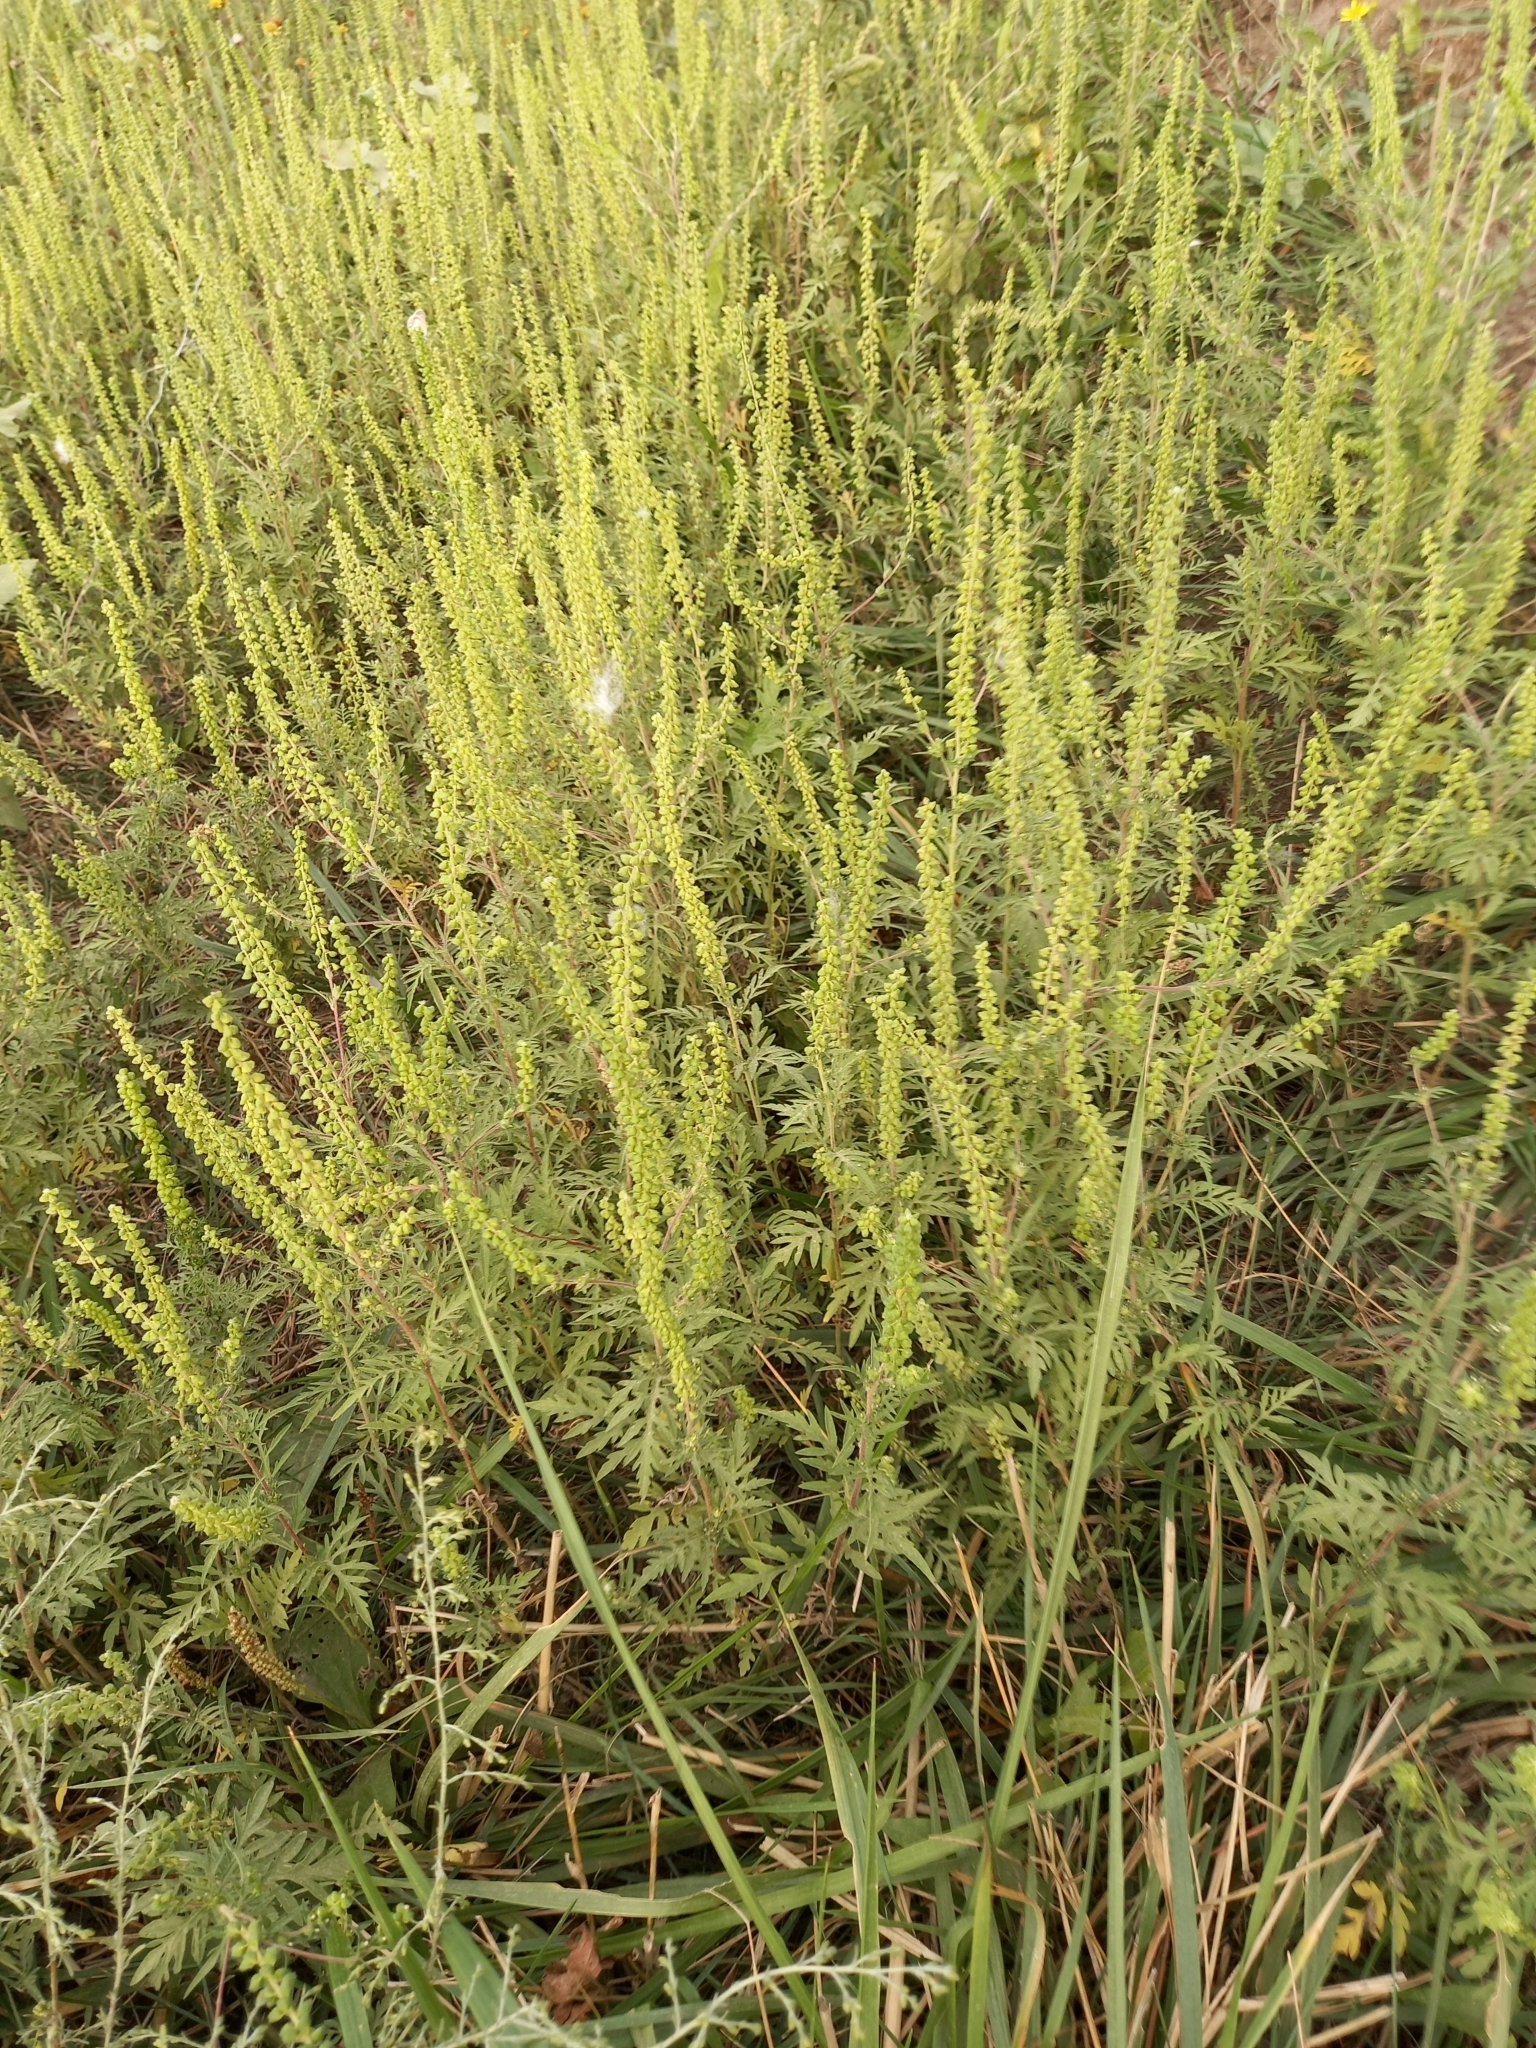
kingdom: Plantae
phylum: Tracheophyta
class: Magnoliopsida
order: Asterales
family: Asteraceae
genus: Ambrosia
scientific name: Ambrosia artemisiifolia
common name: Annual ragweed
